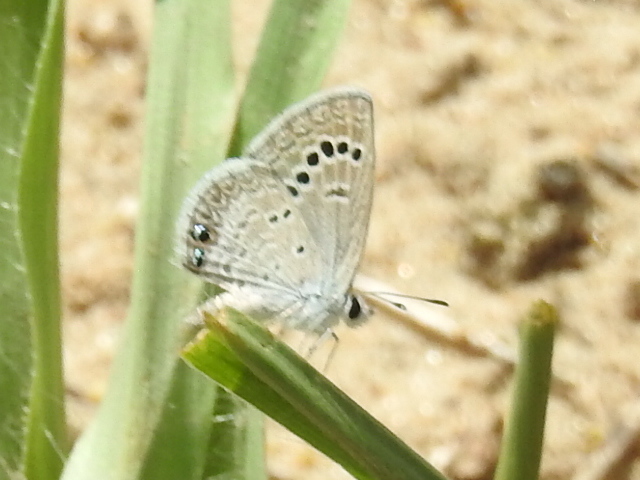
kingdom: Animalia
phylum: Arthropoda
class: Insecta
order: Lepidoptera
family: Lycaenidae
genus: Echinargus
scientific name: Echinargus isola
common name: Reakirt's blue
